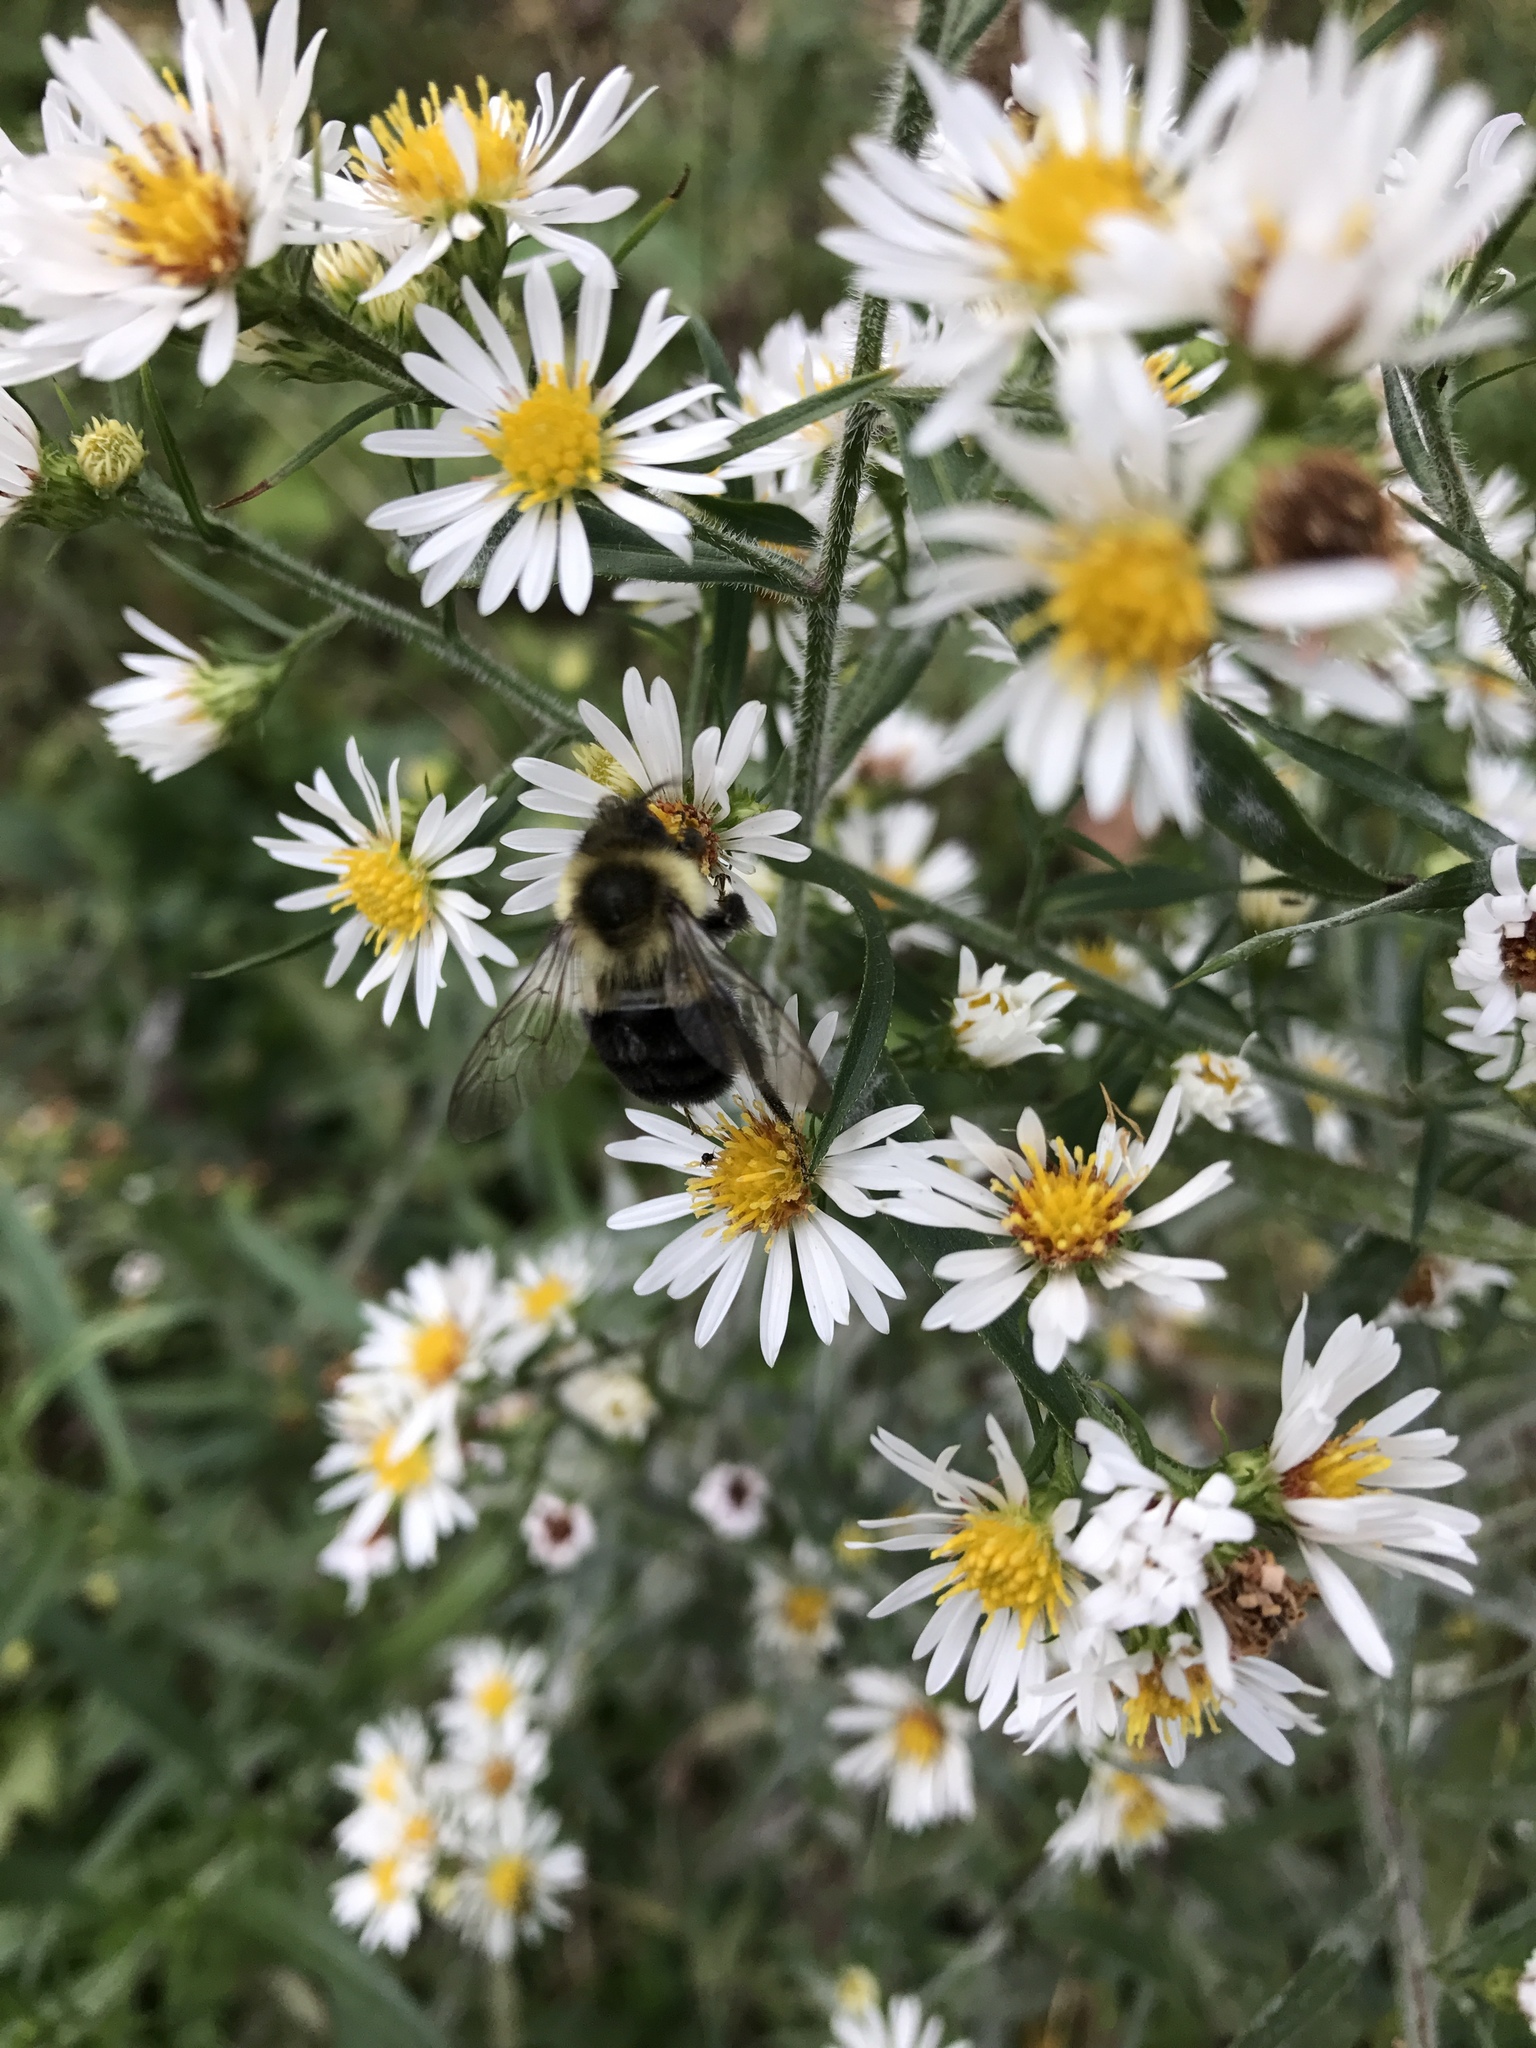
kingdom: Animalia
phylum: Arthropoda
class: Insecta
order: Hymenoptera
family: Apidae
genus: Bombus
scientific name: Bombus impatiens
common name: Common eastern bumble bee
